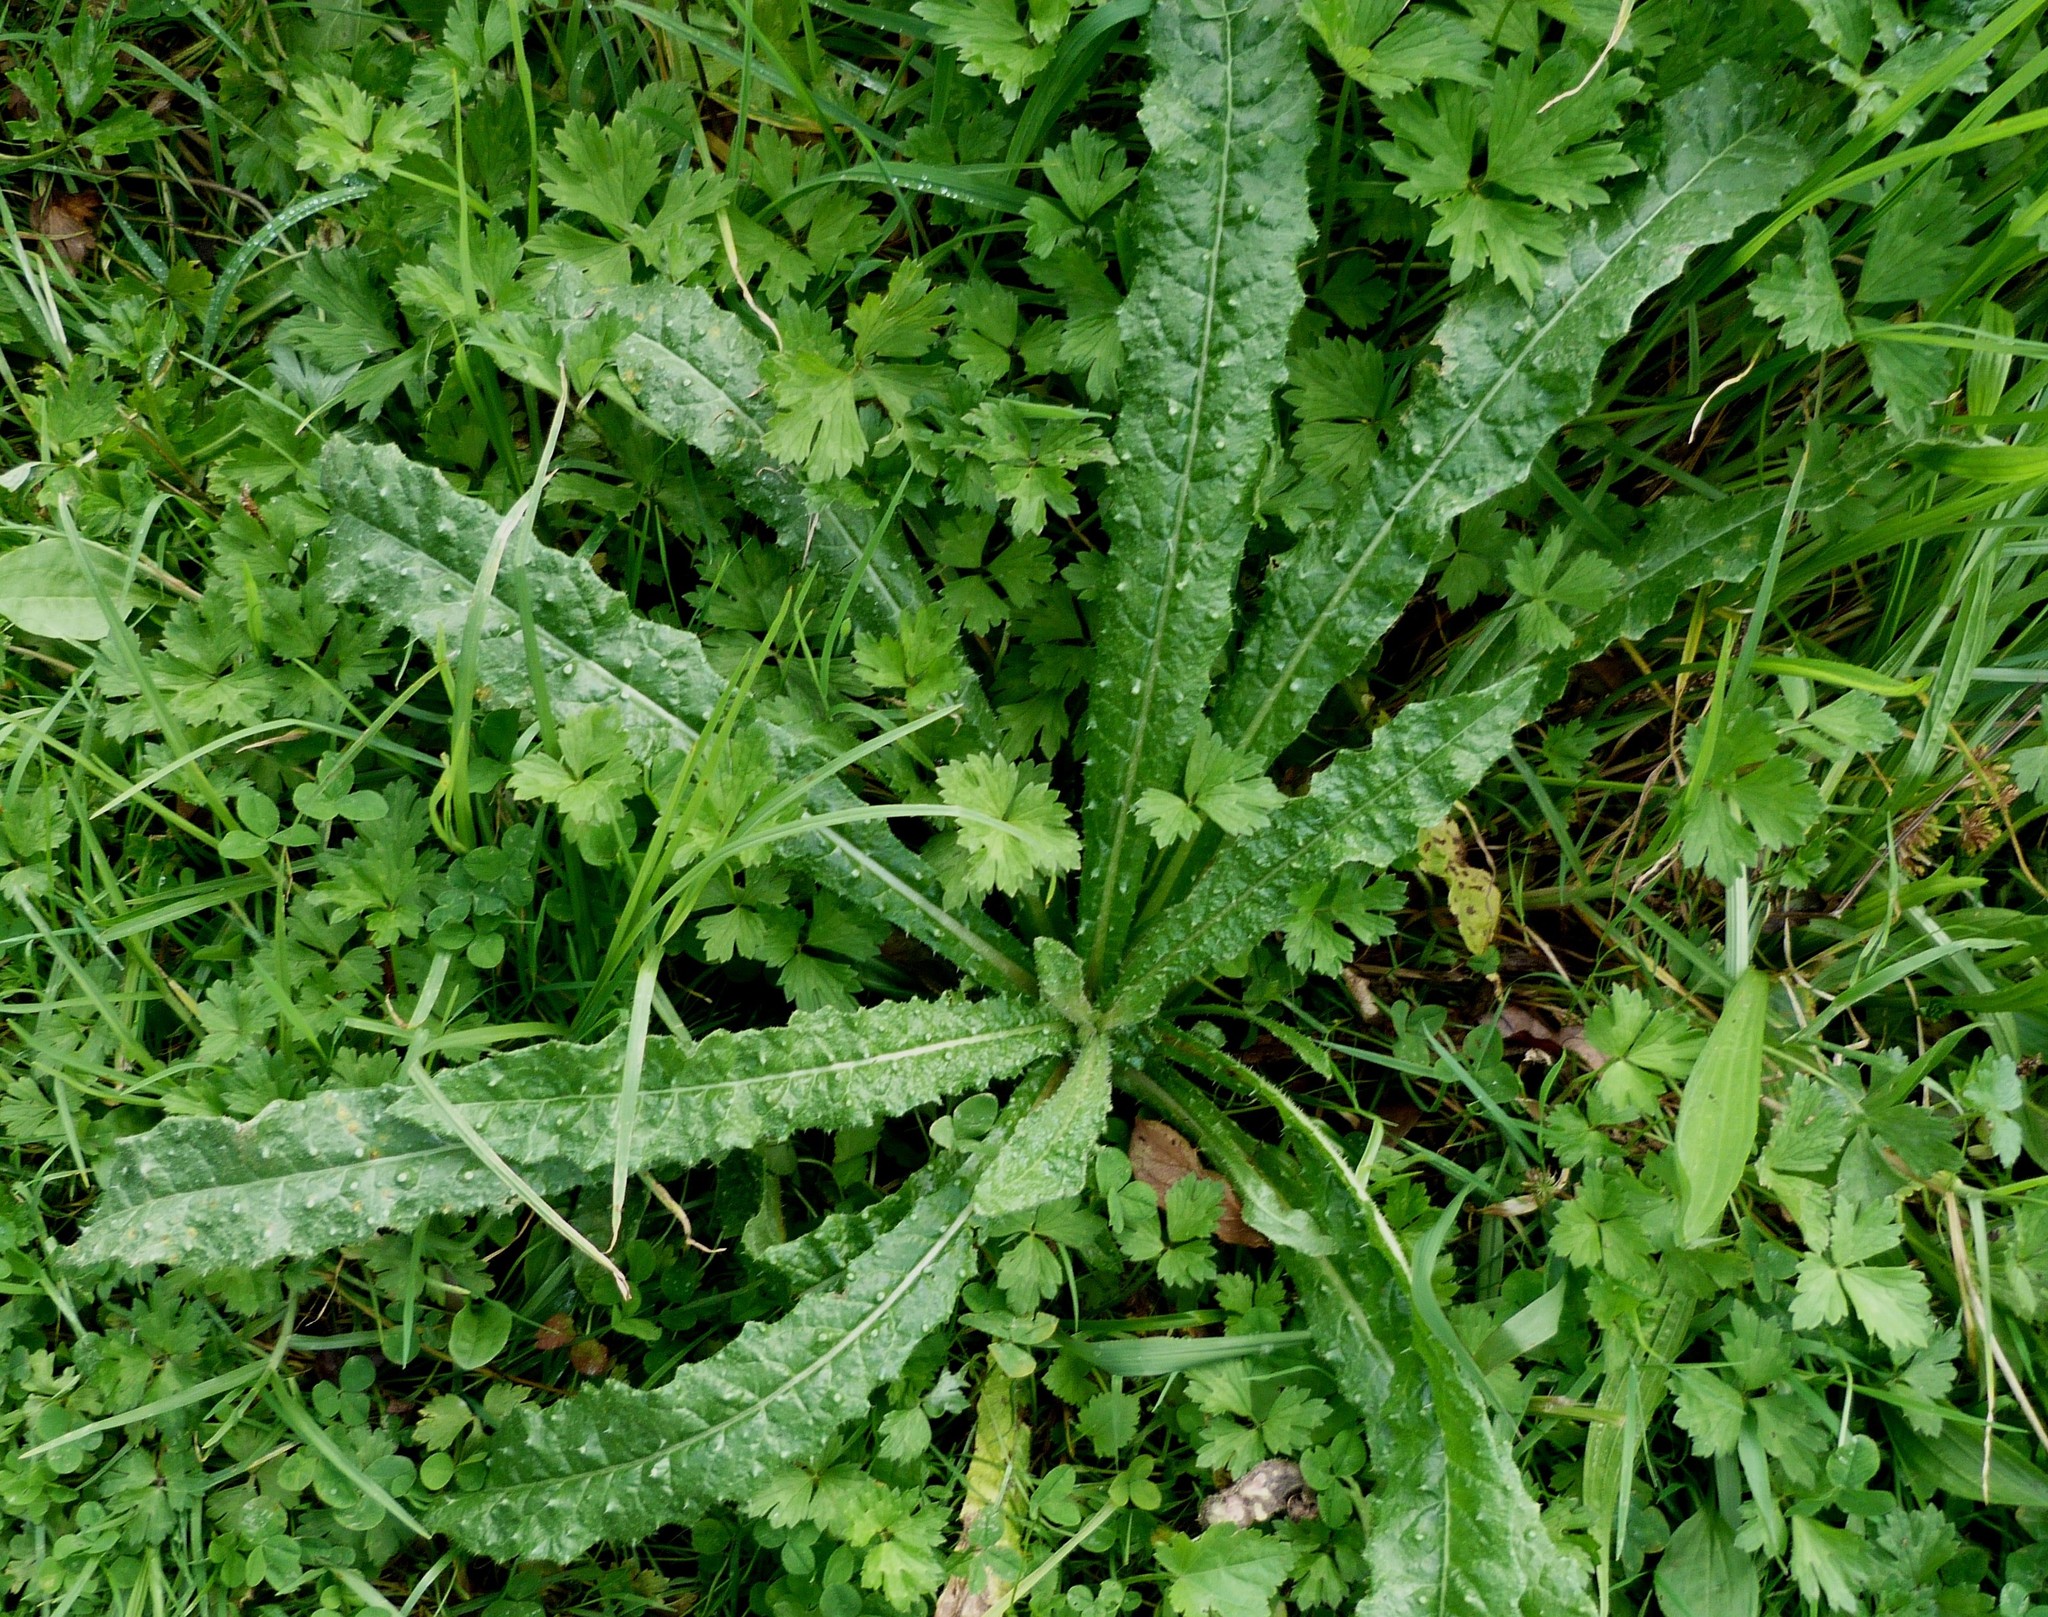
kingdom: Plantae
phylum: Tracheophyta
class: Magnoliopsida
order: Asterales
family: Asteraceae
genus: Helminthotheca
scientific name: Helminthotheca echioides
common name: Ox-tongue
